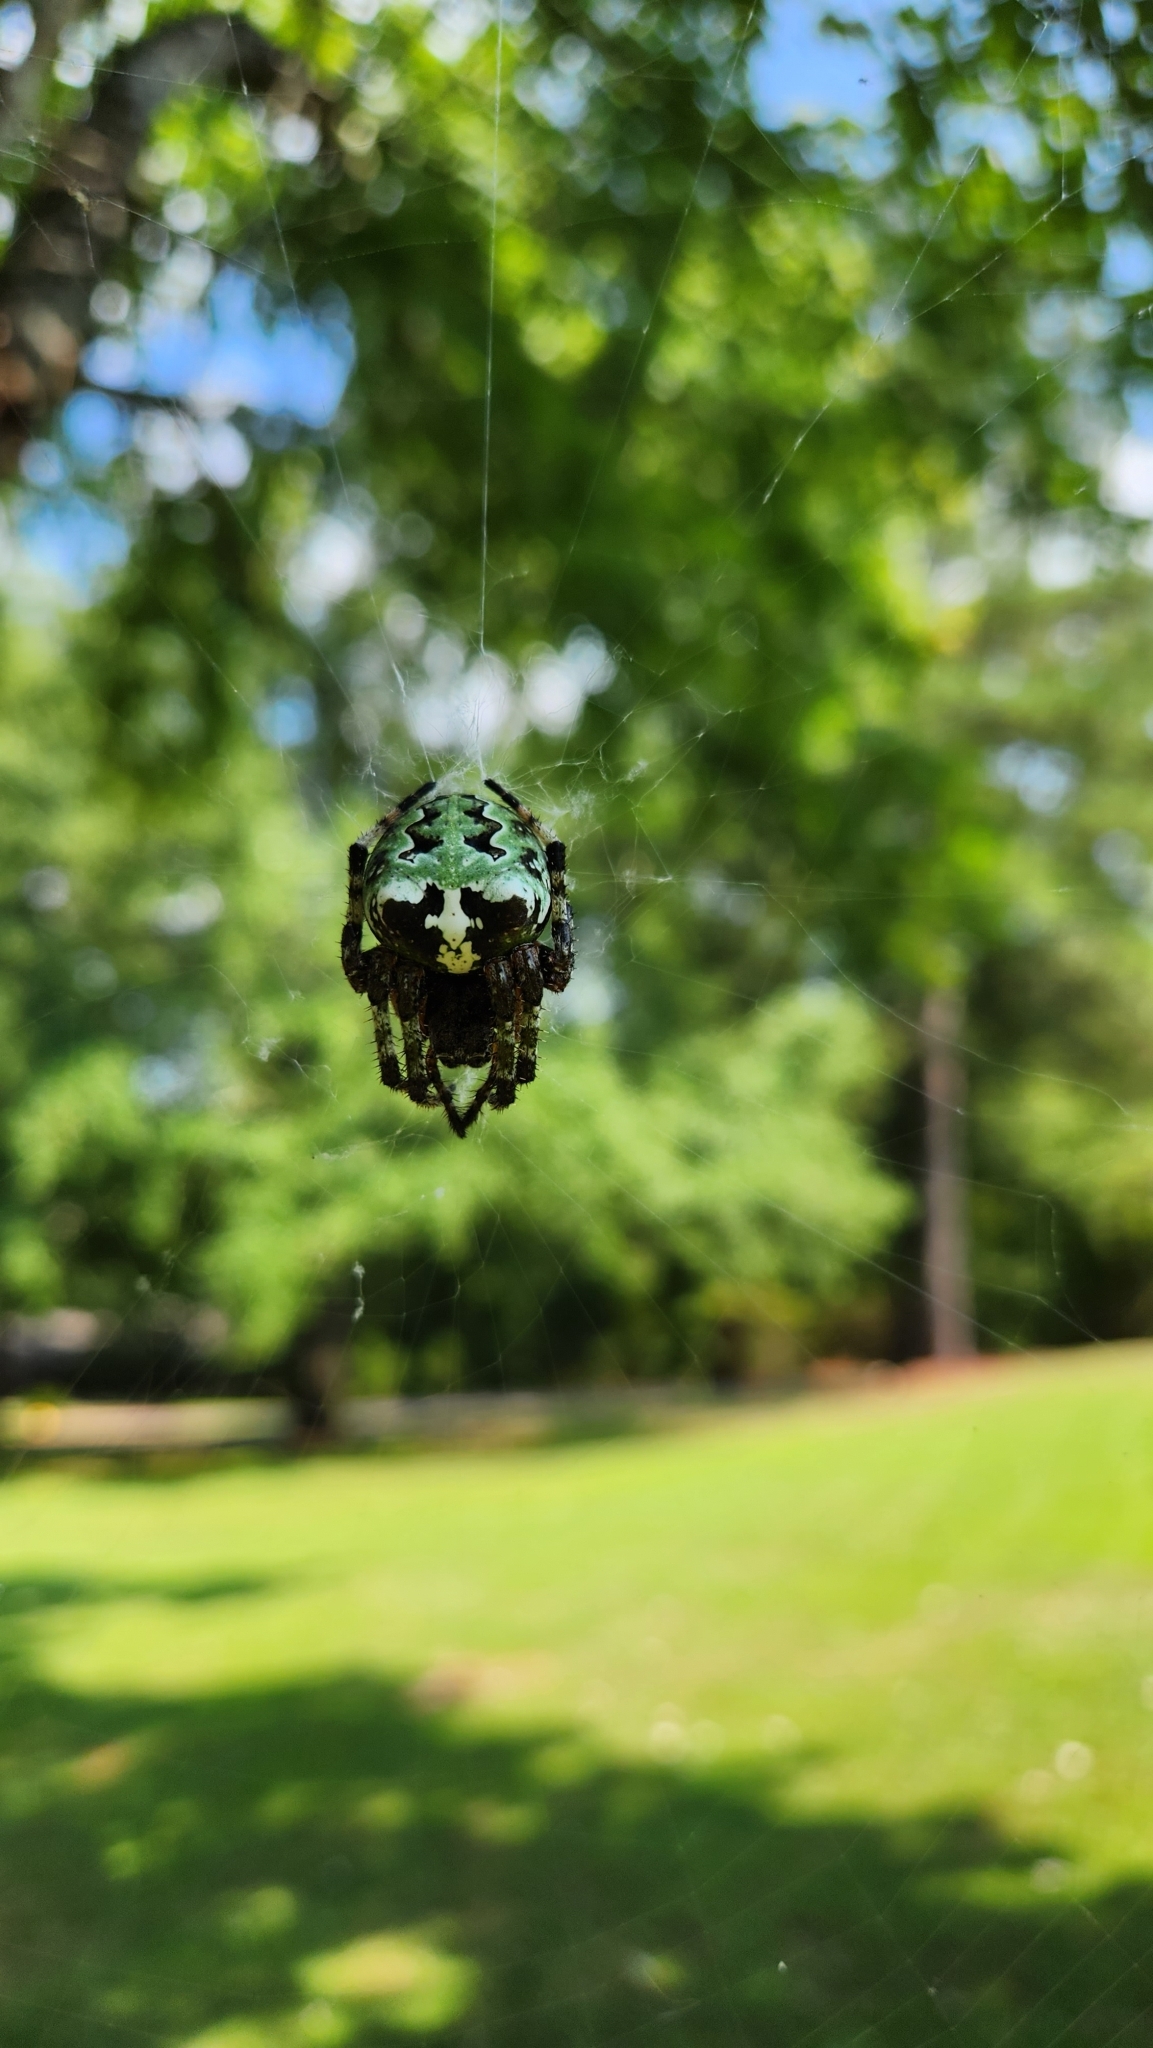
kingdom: Animalia
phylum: Arthropoda
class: Arachnida
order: Araneae
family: Araneidae
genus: Araneus
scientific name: Araneus bicentenarius
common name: Giant lichen orbweaver
